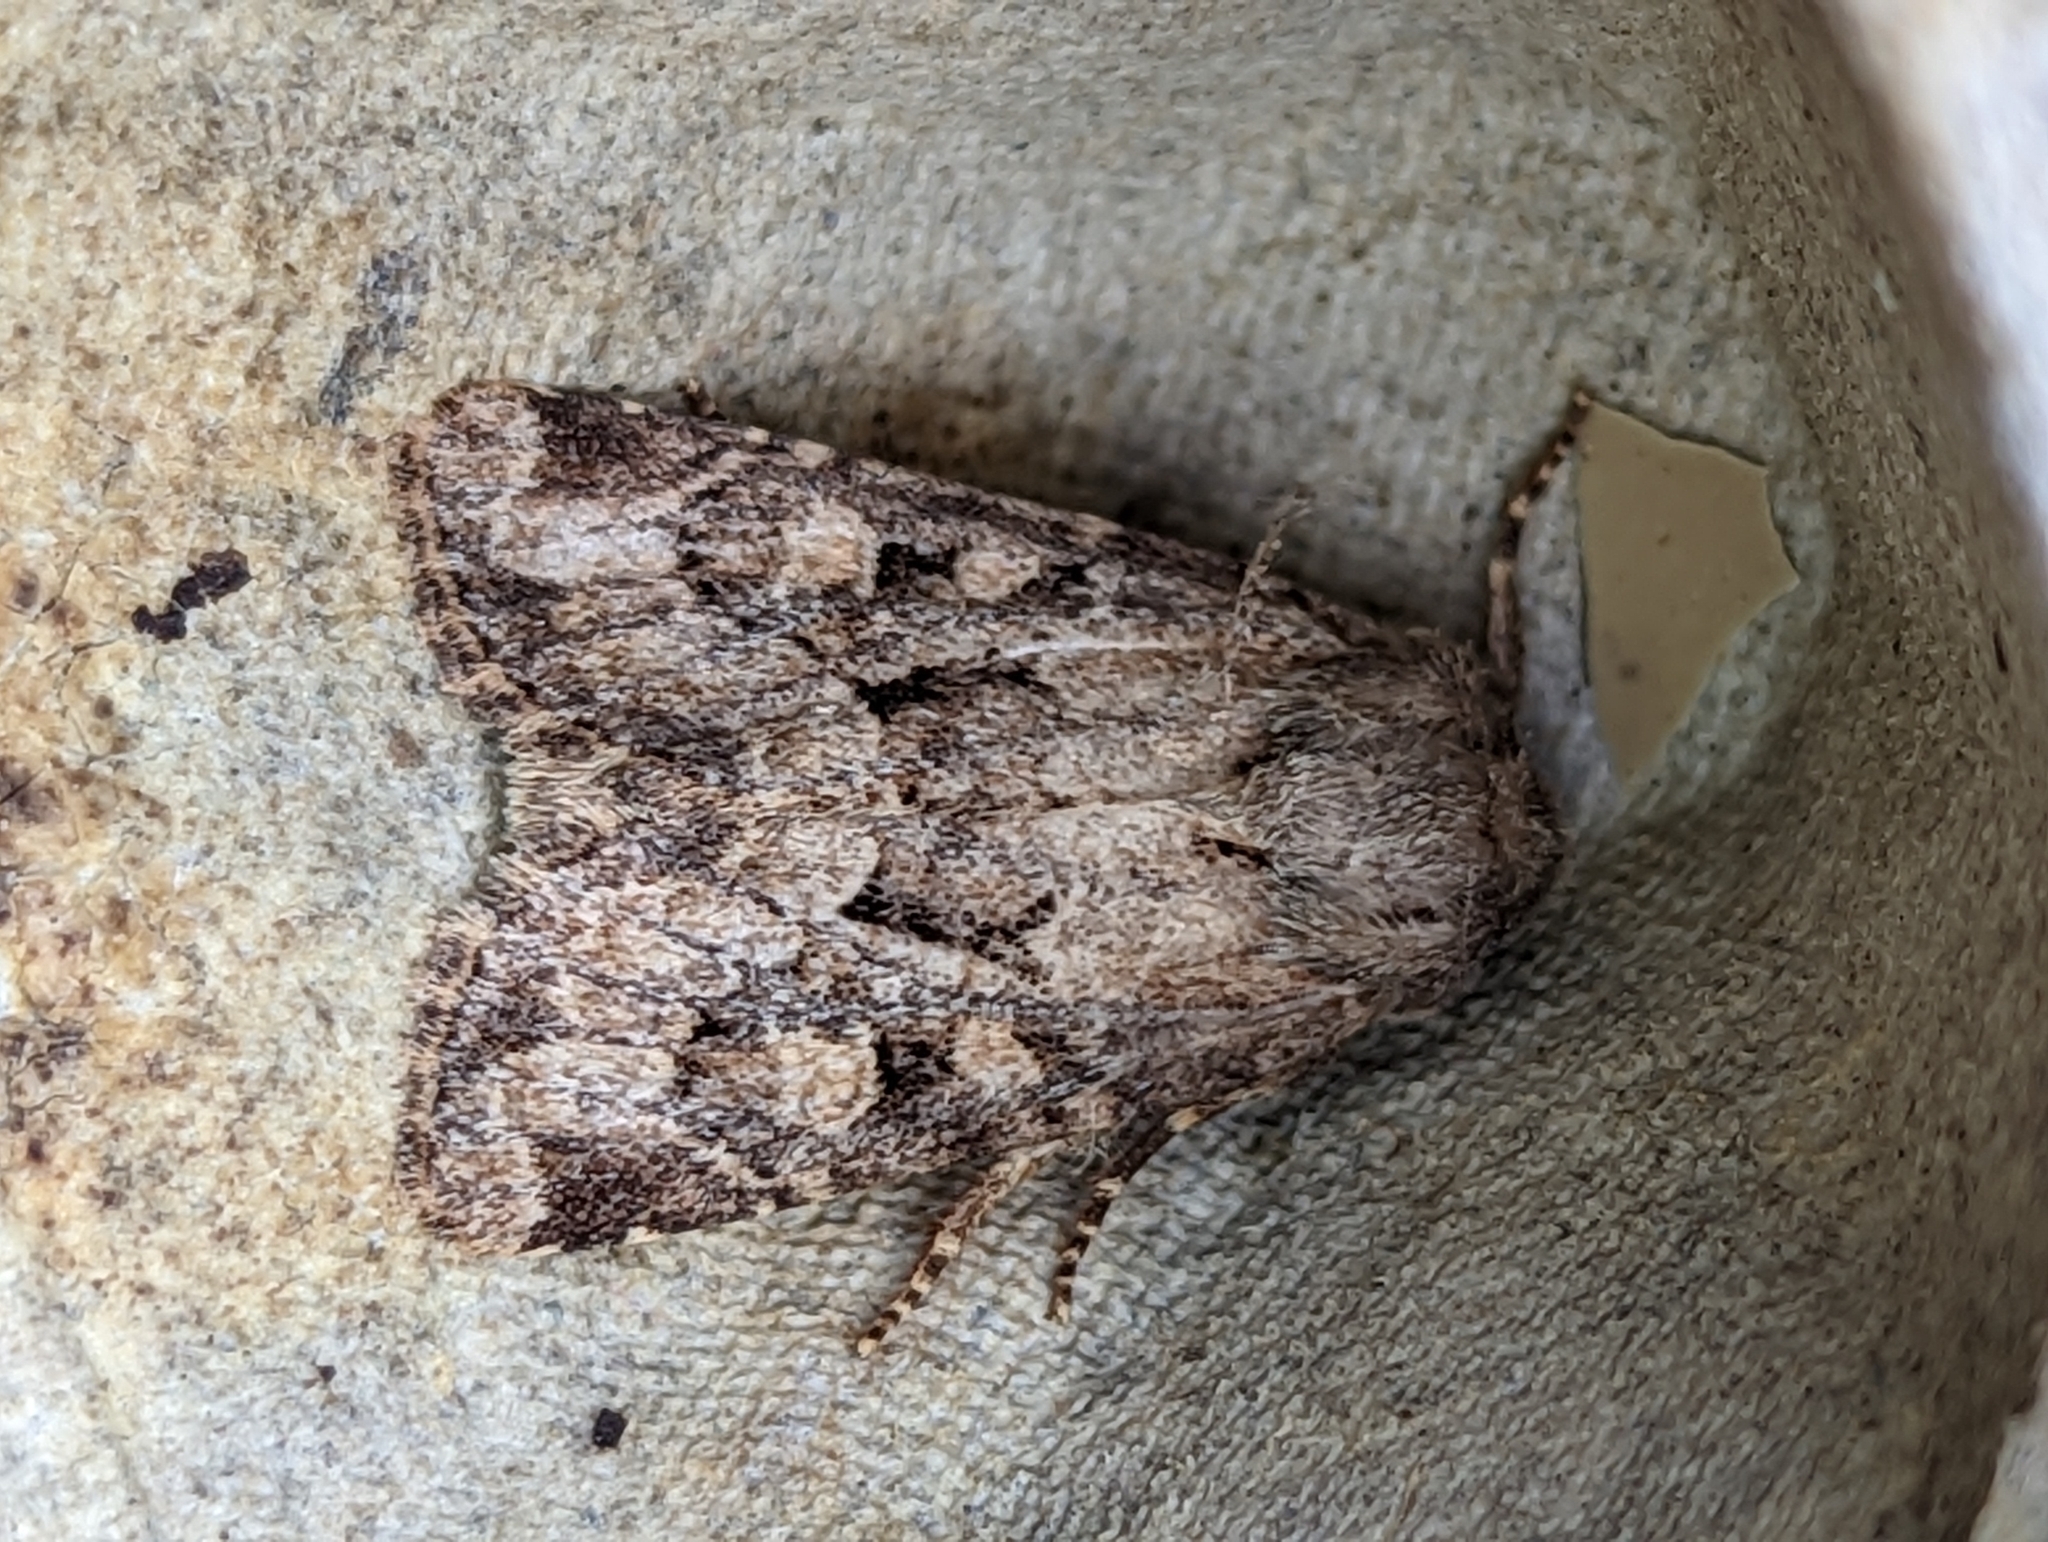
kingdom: Animalia
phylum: Arthropoda
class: Insecta
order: Lepidoptera
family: Noctuidae
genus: Luperina
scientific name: Luperina testacea
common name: Flounced rustic
